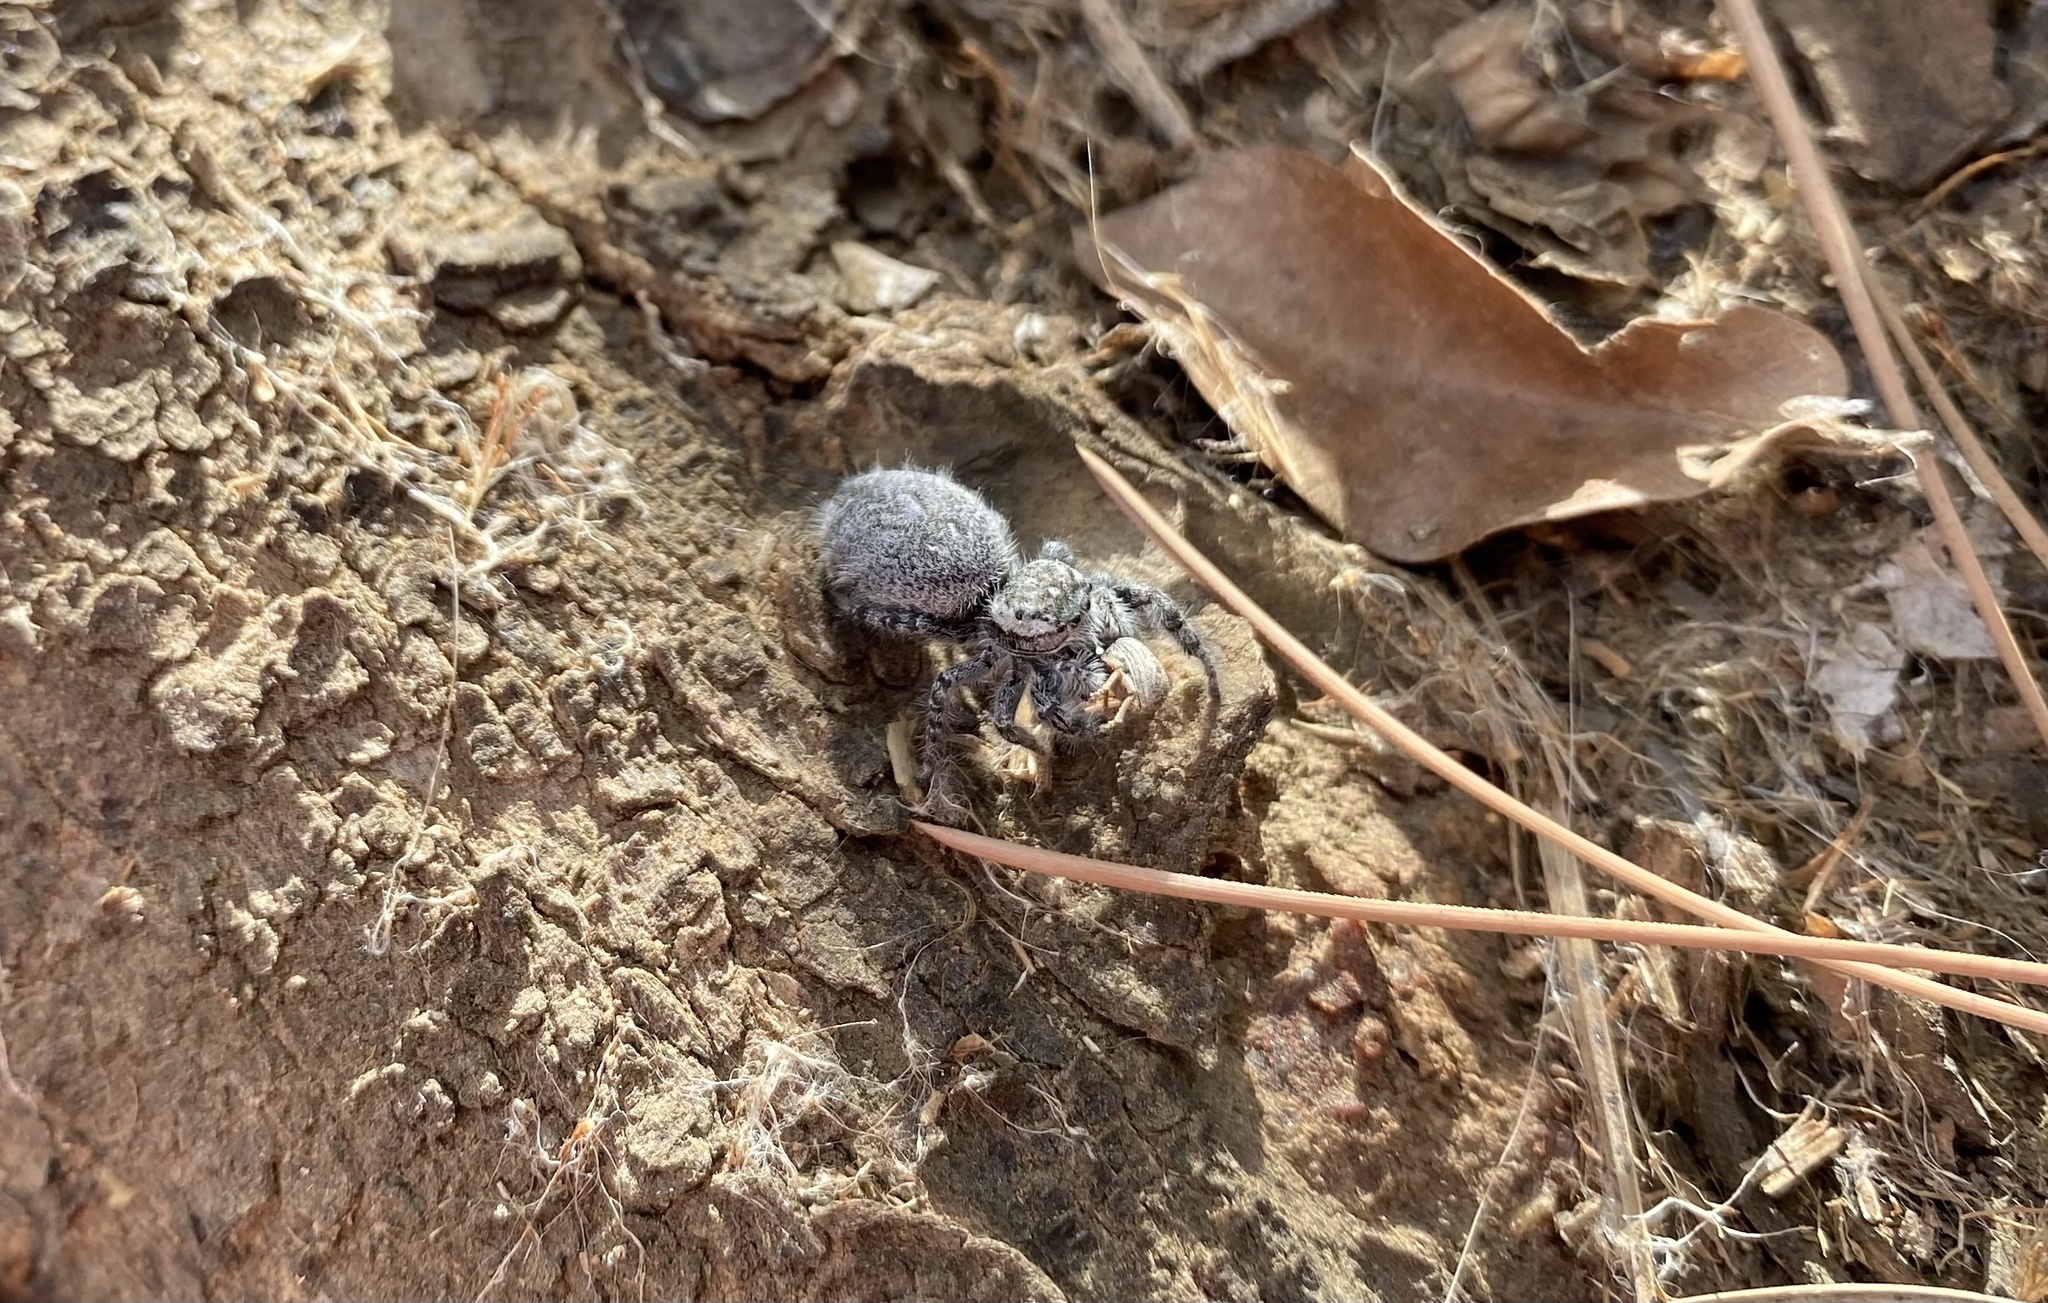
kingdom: Animalia
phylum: Arthropoda
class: Arachnida
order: Araneae
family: Salticidae
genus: Phidippus
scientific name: Phidippus asotus
